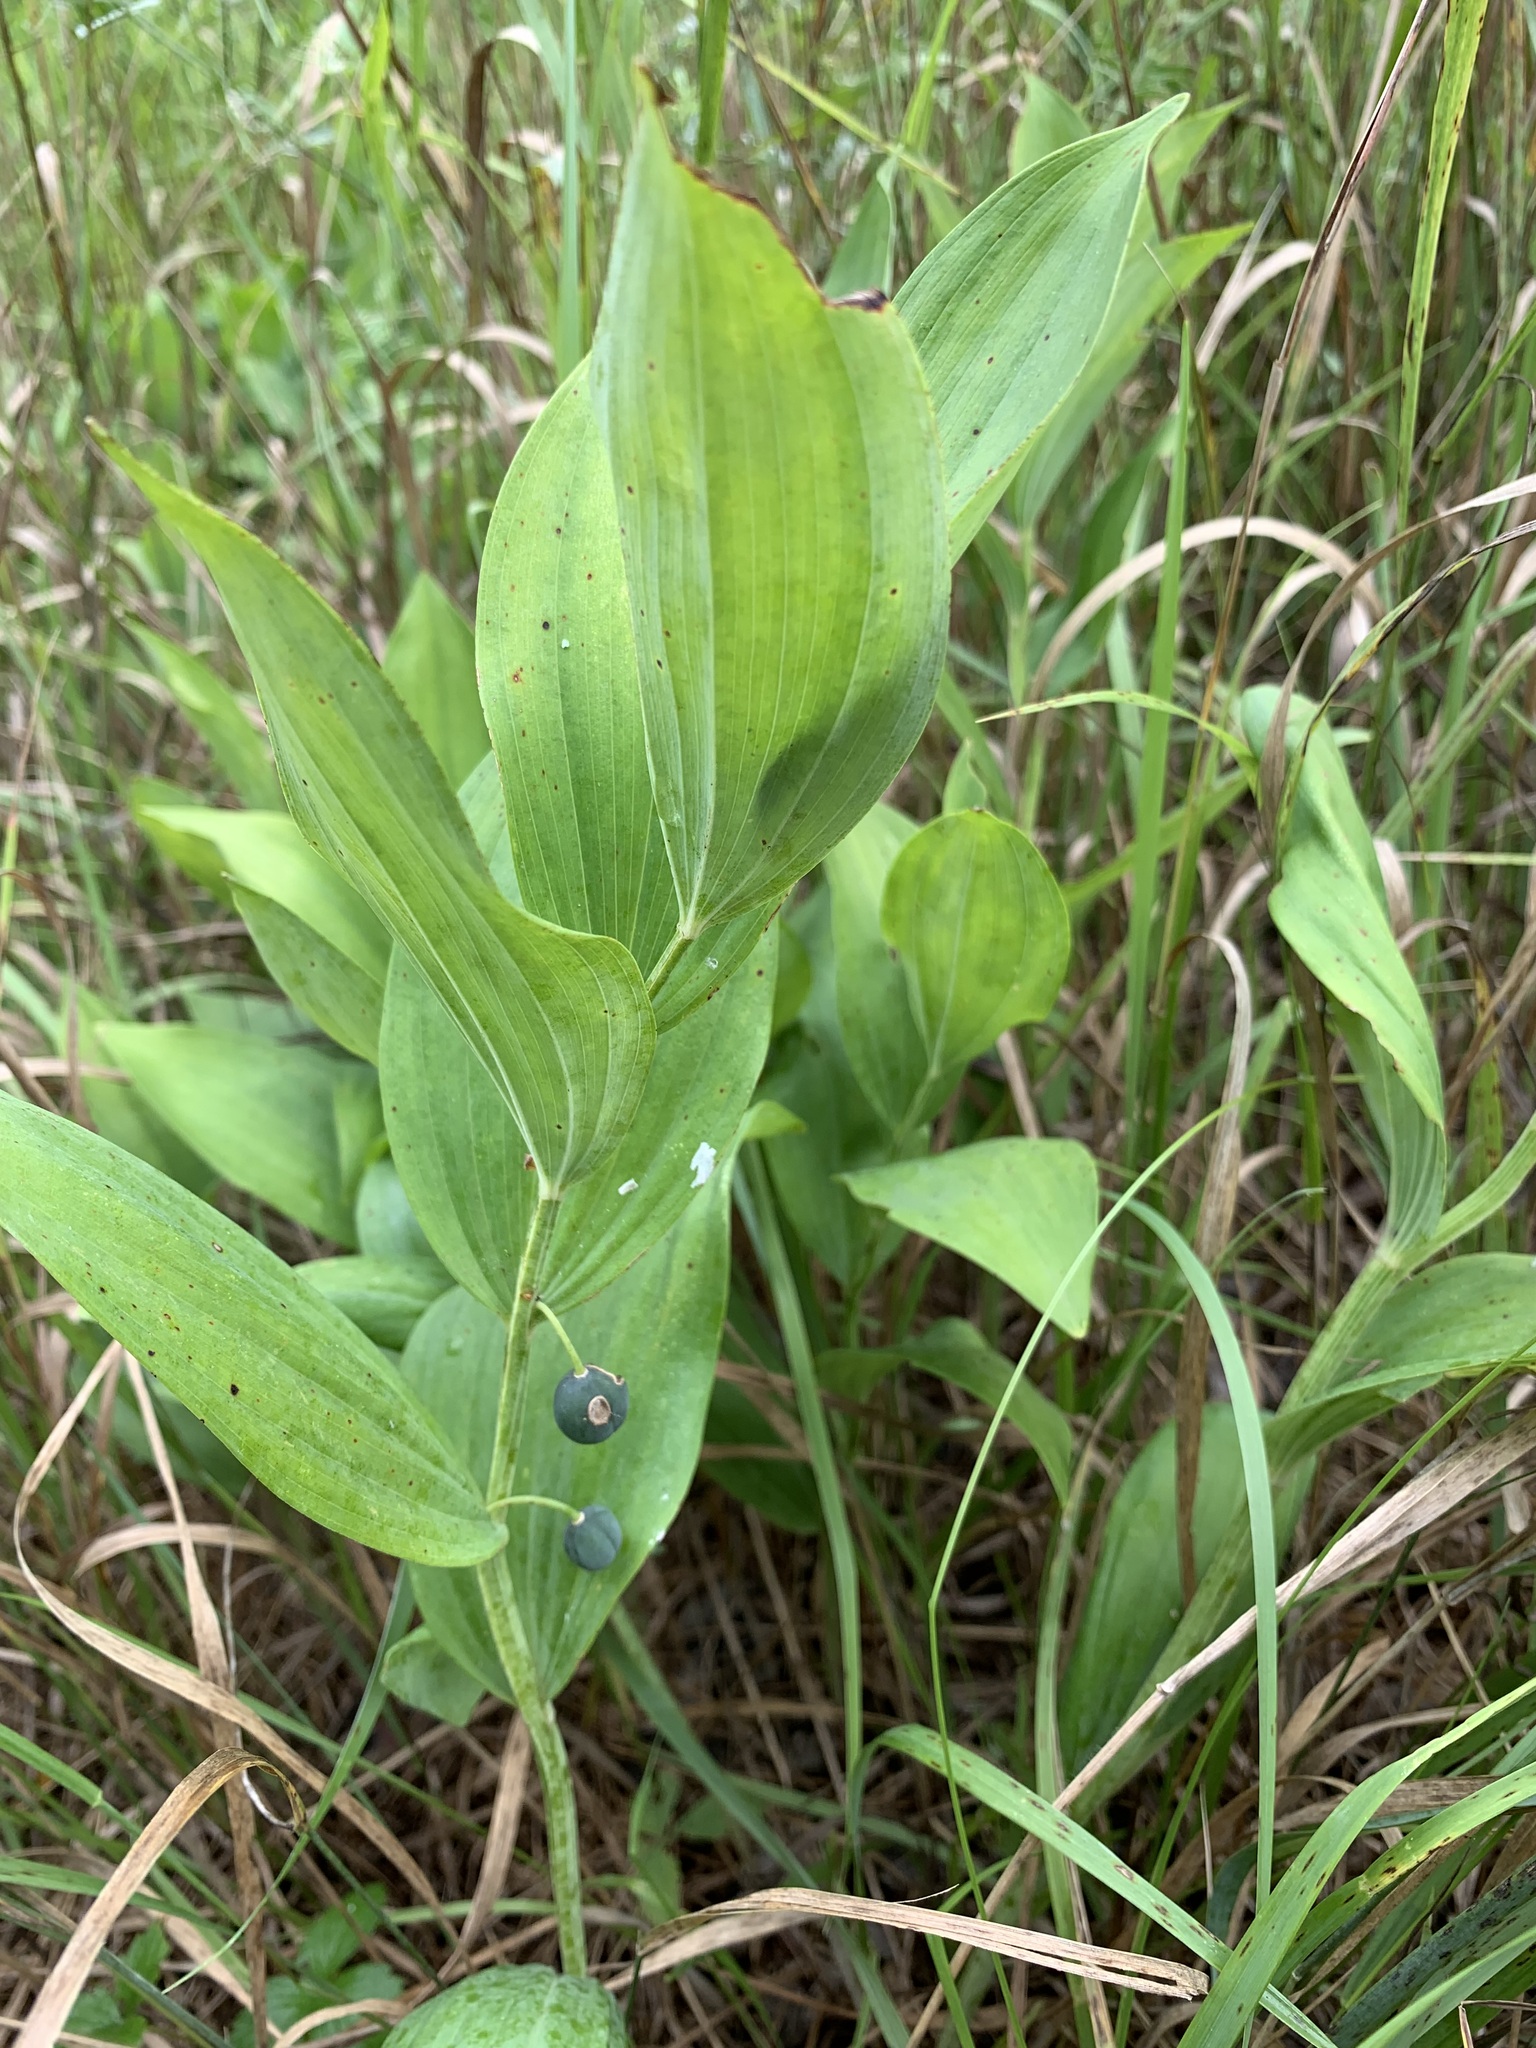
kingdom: Plantae
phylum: Tracheophyta
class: Liliopsida
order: Asparagales
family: Asparagaceae
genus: Polygonatum
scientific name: Polygonatum odoratum
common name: Angular solomon's-seal
